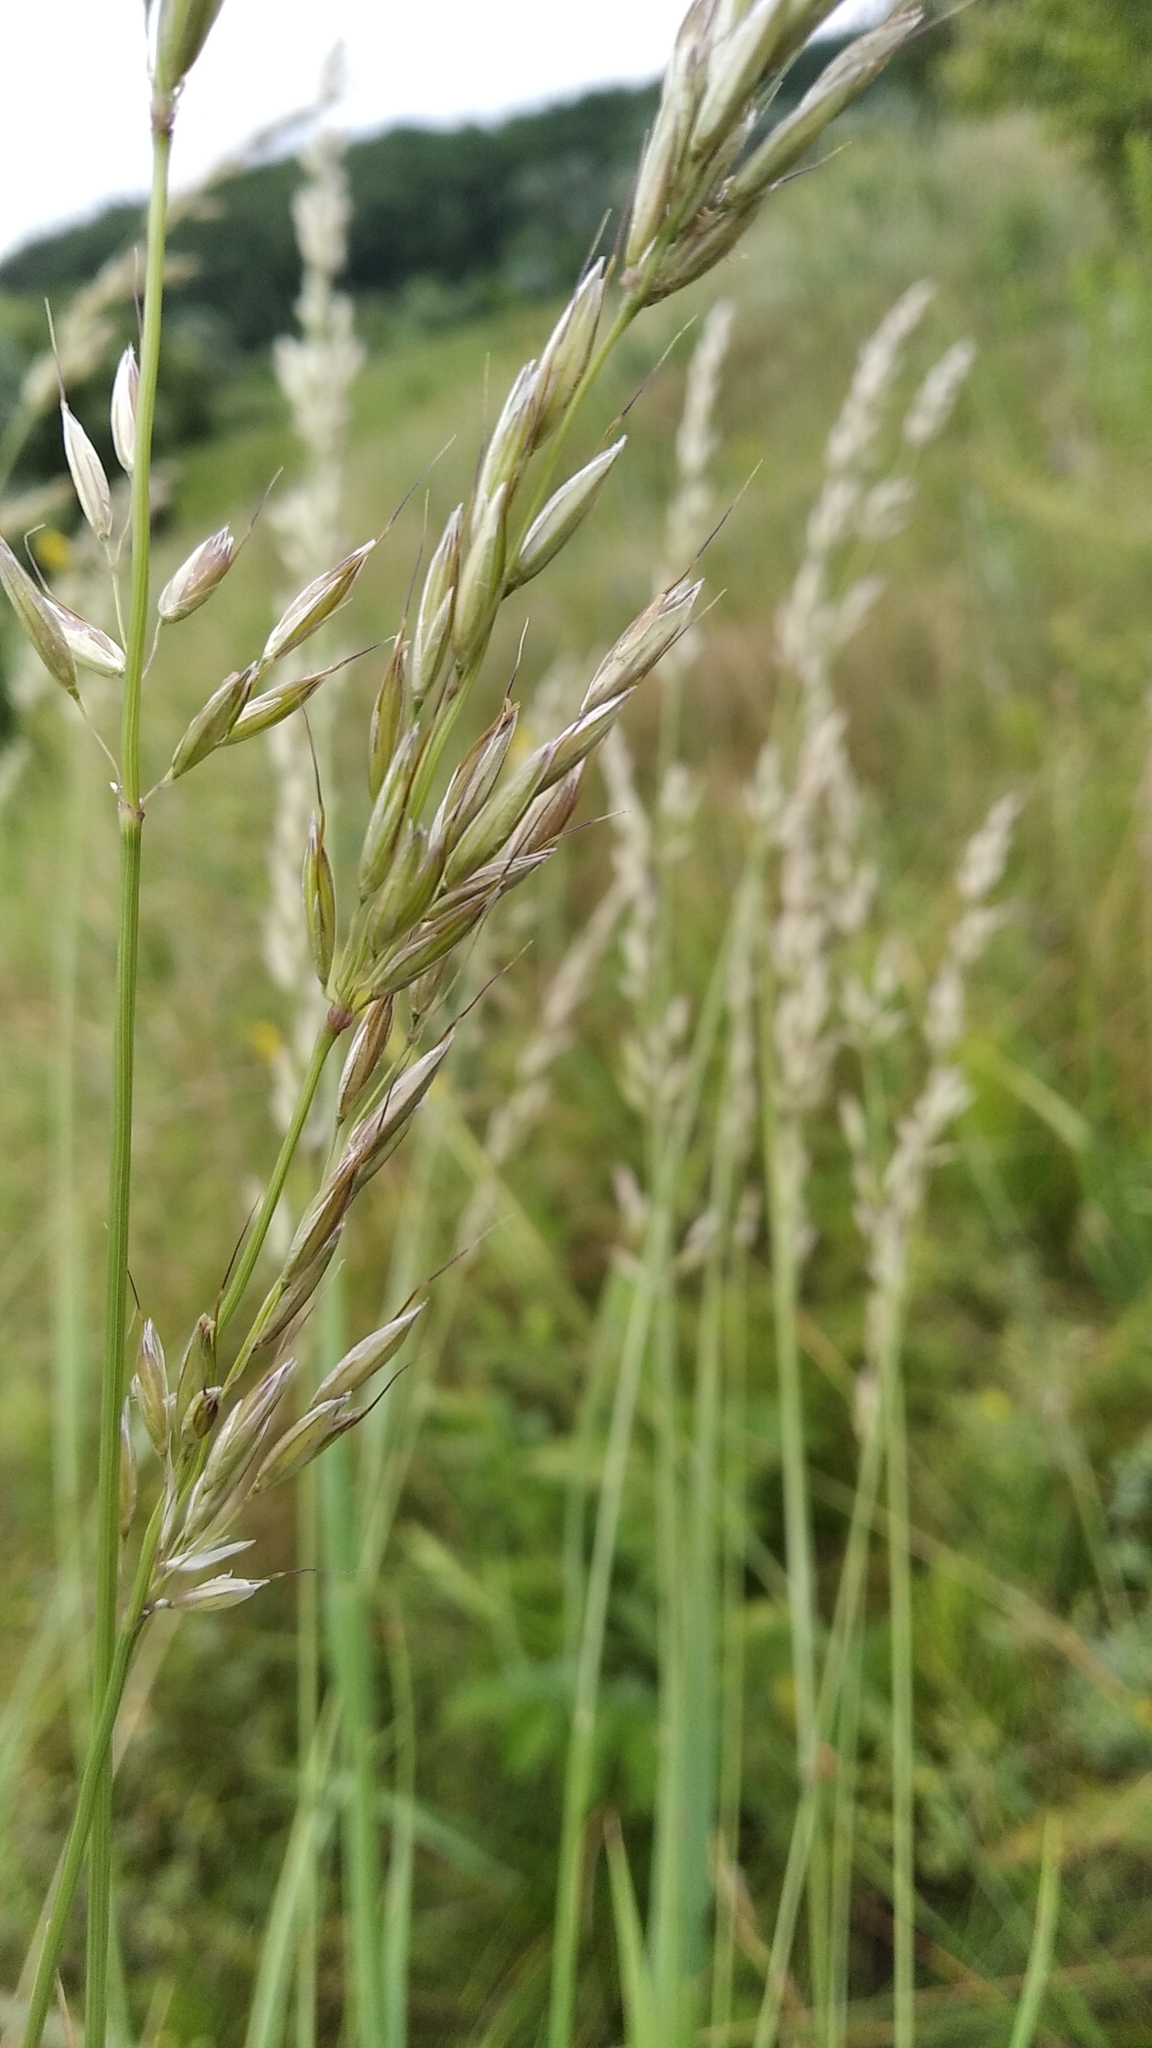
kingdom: Plantae
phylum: Tracheophyta
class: Liliopsida
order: Poales
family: Poaceae
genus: Arrhenatherum
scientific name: Arrhenatherum elatius
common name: Tall oatgrass
